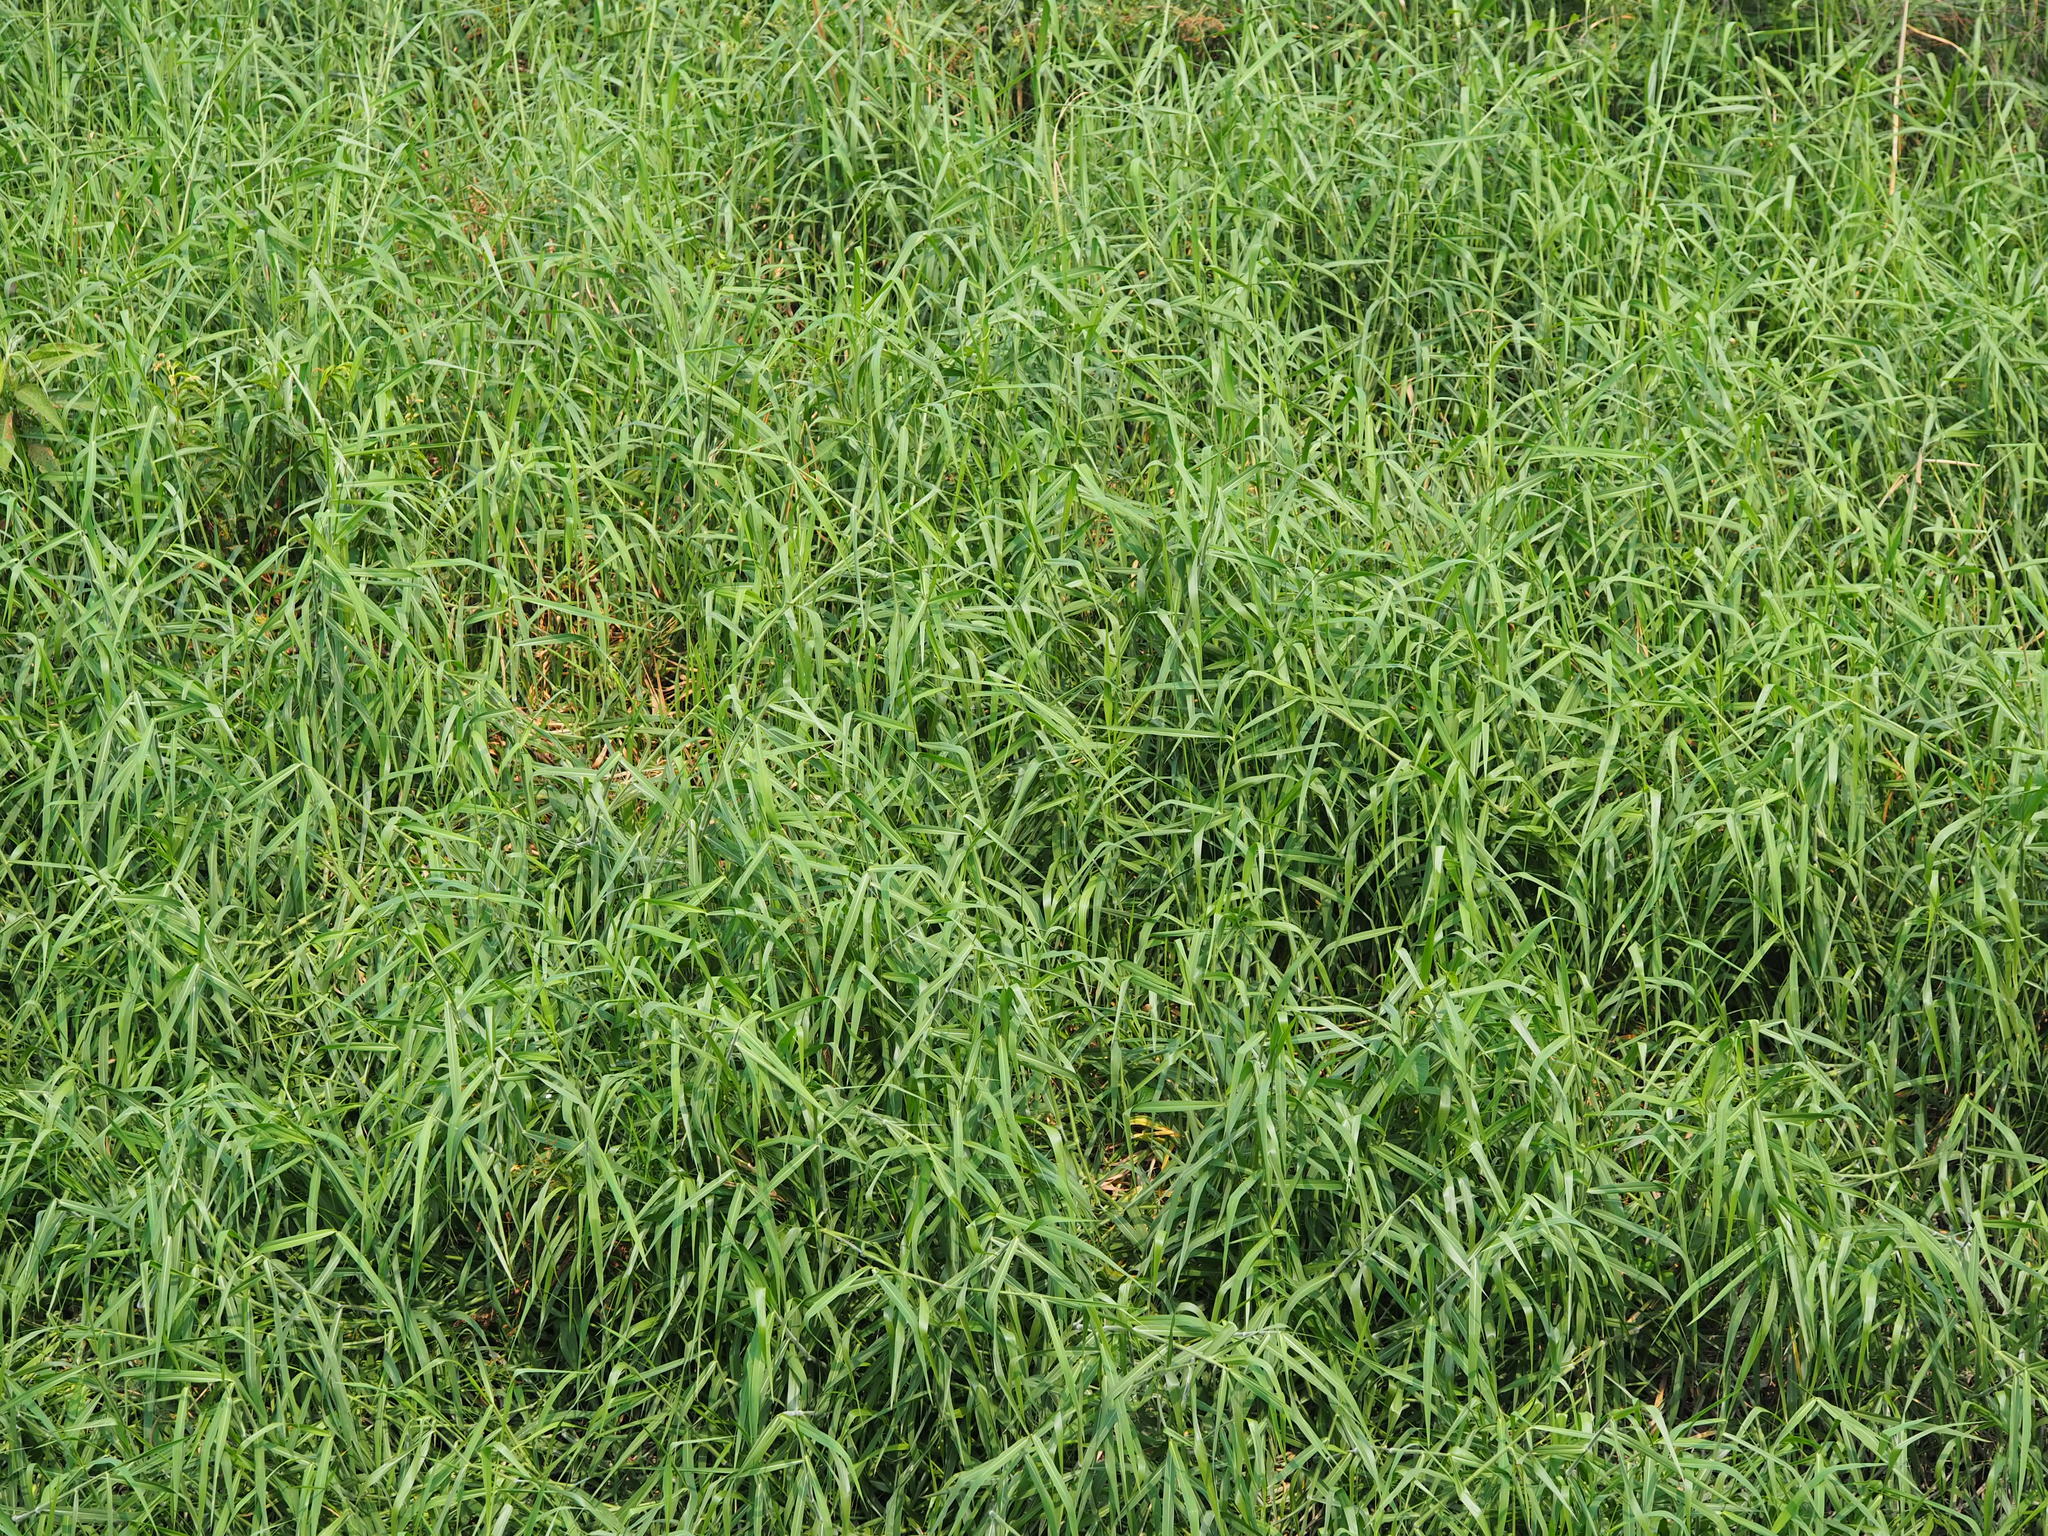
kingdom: Plantae
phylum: Tracheophyta
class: Liliopsida
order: Poales
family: Poaceae
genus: Urochloa
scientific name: Urochloa mutica
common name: Para grass
